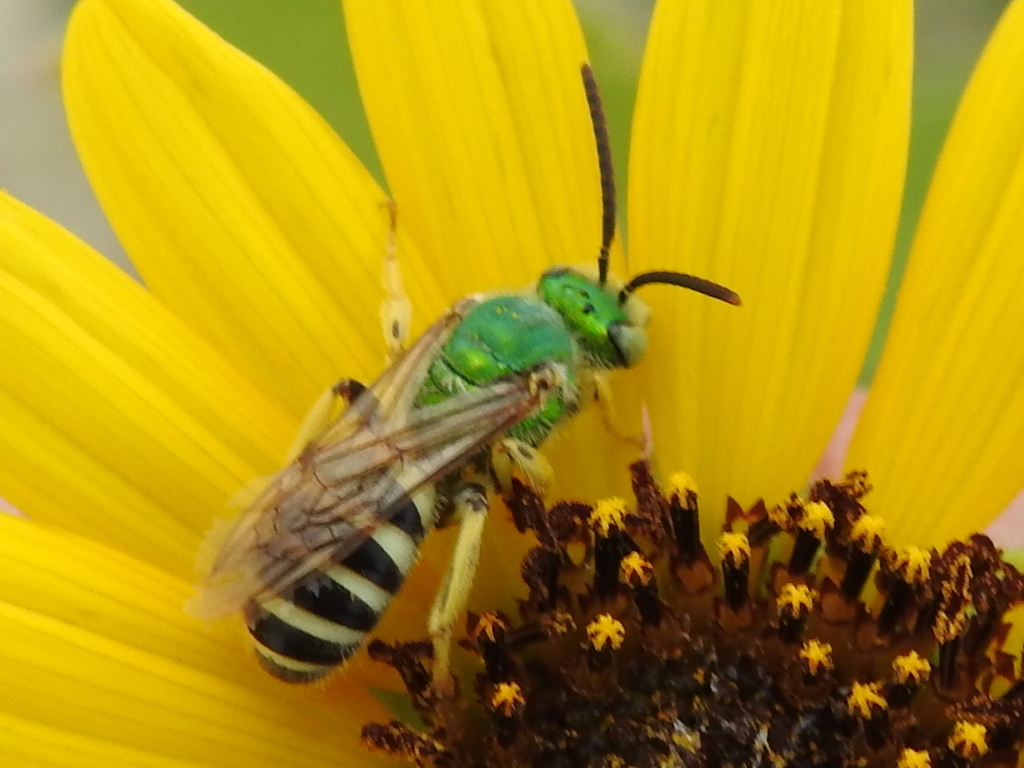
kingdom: Animalia
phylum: Arthropoda
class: Insecta
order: Hymenoptera
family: Halictidae
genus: Agapostemon
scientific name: Agapostemon
